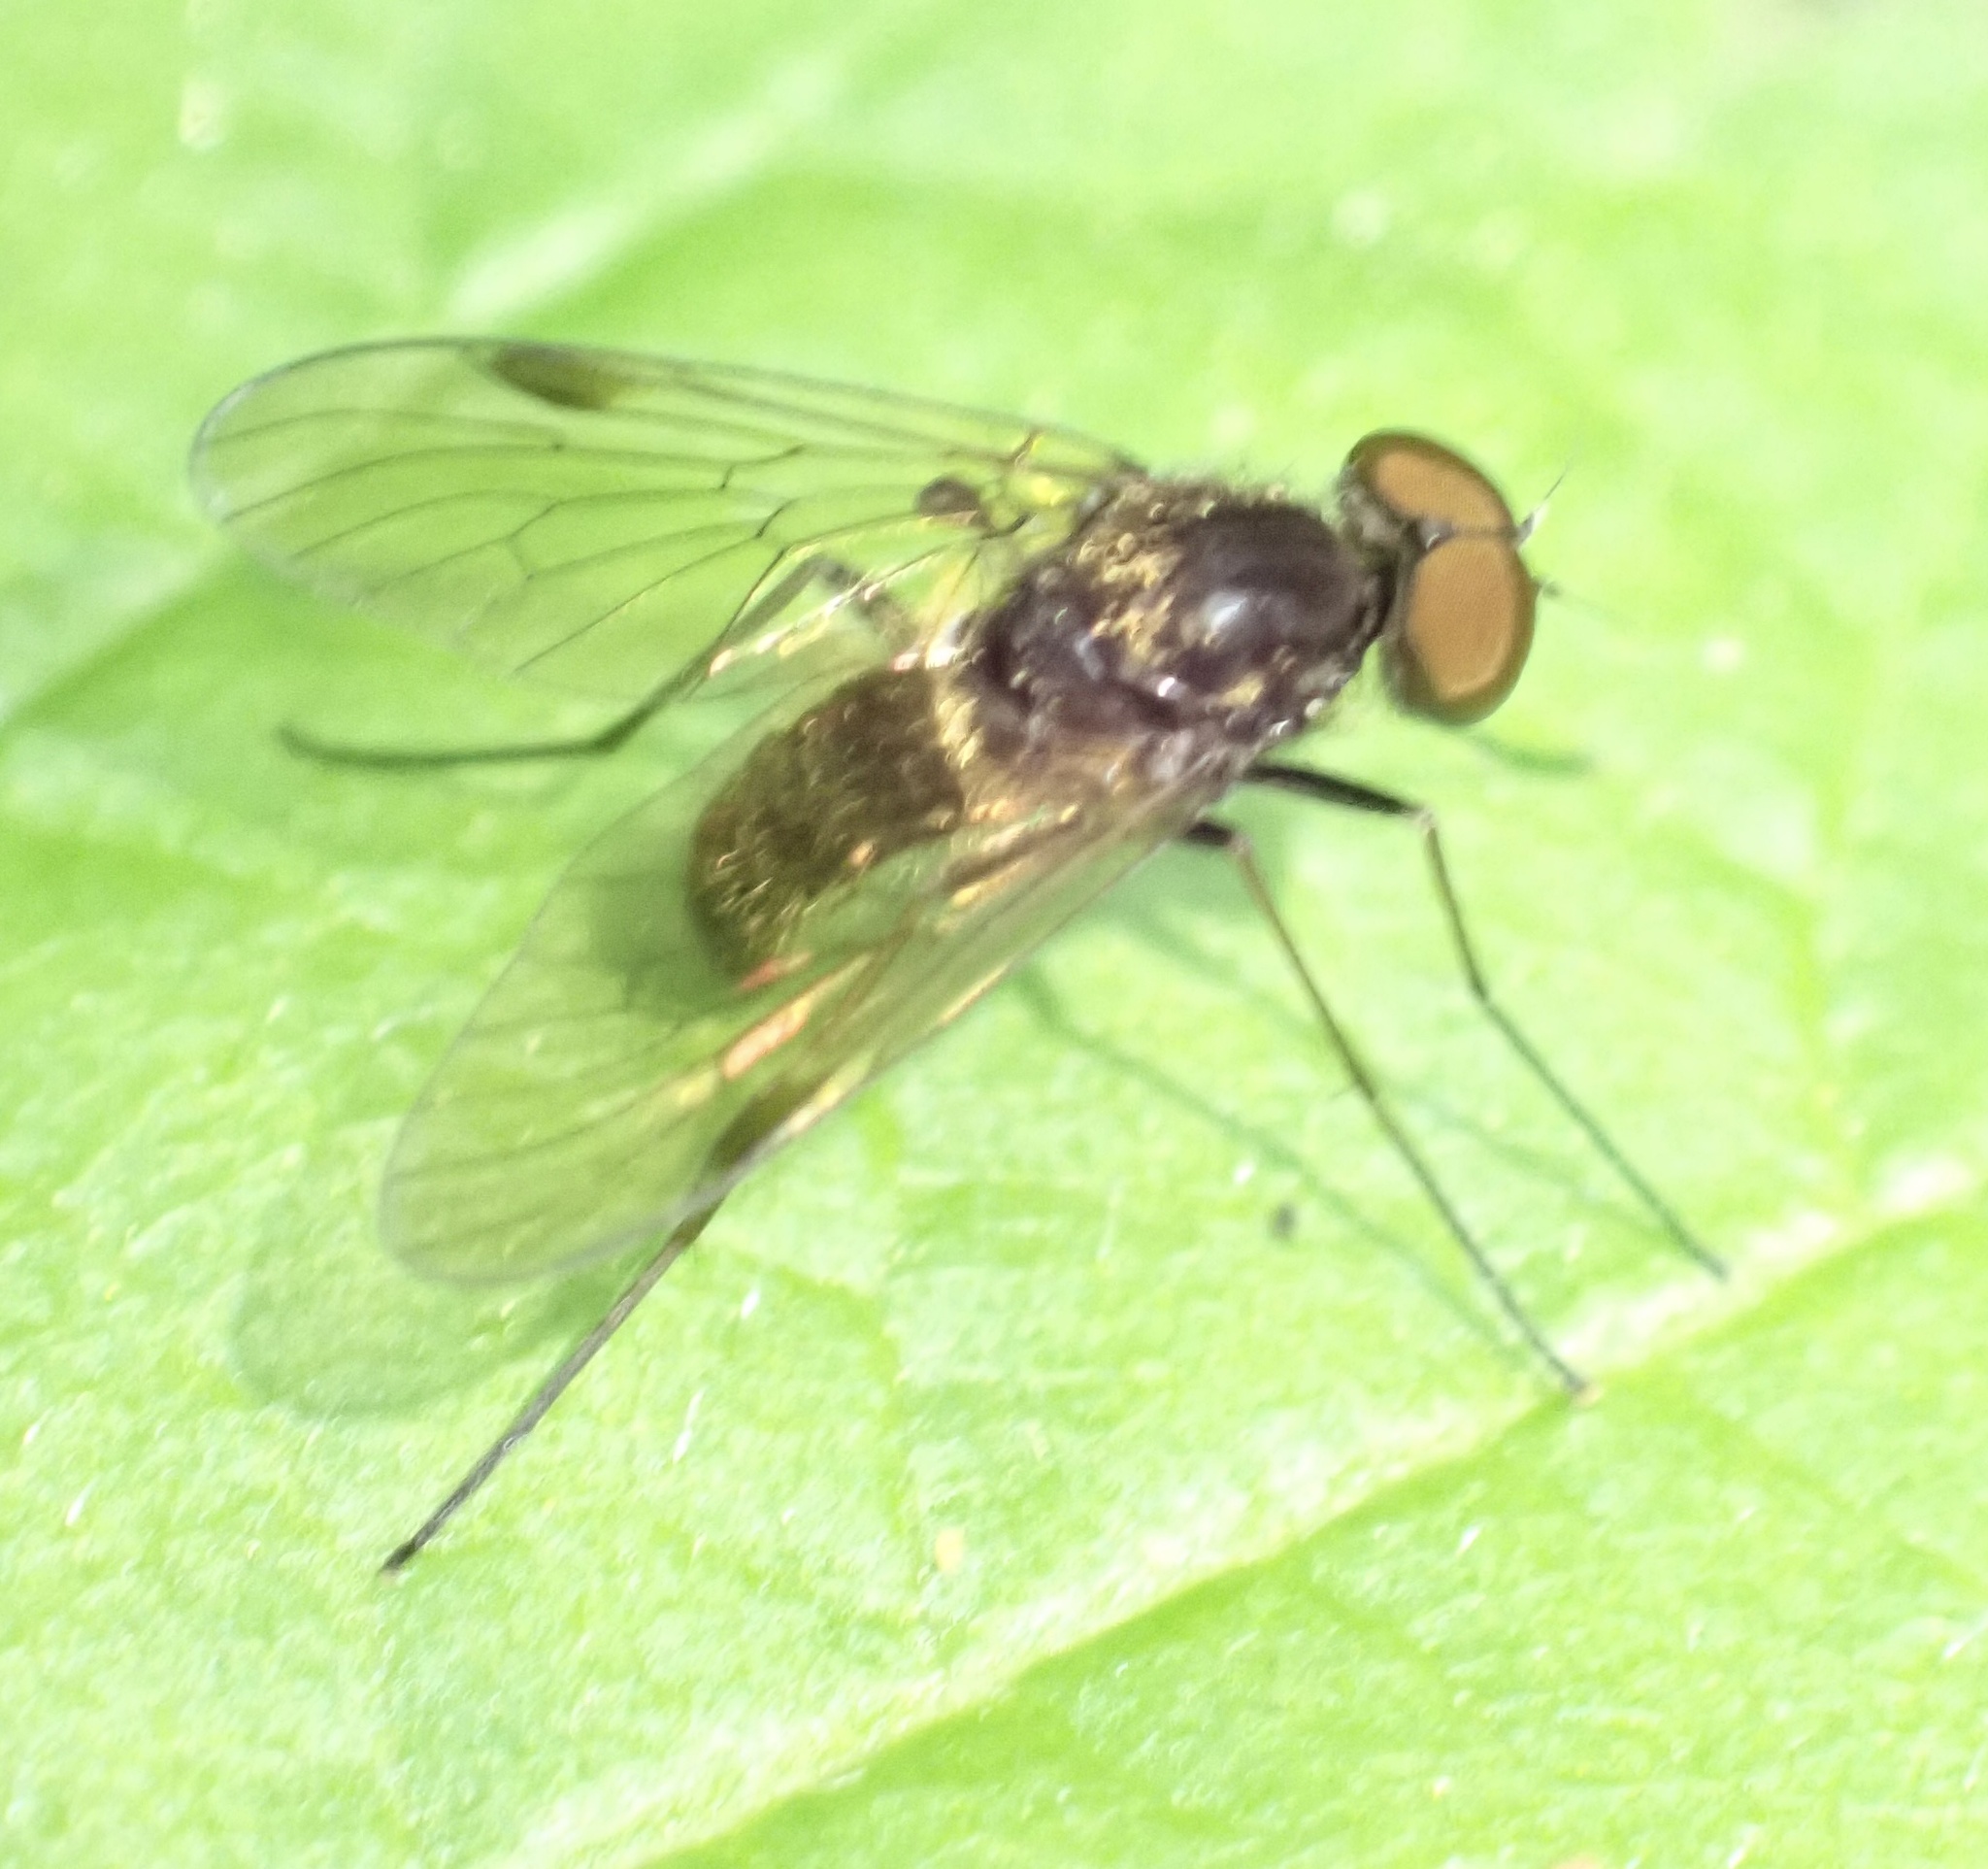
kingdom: Animalia
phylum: Arthropoda
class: Insecta
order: Diptera
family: Rhagionidae
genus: Chrysopilus
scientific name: Chrysopilus cristatus
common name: Black snipefly
